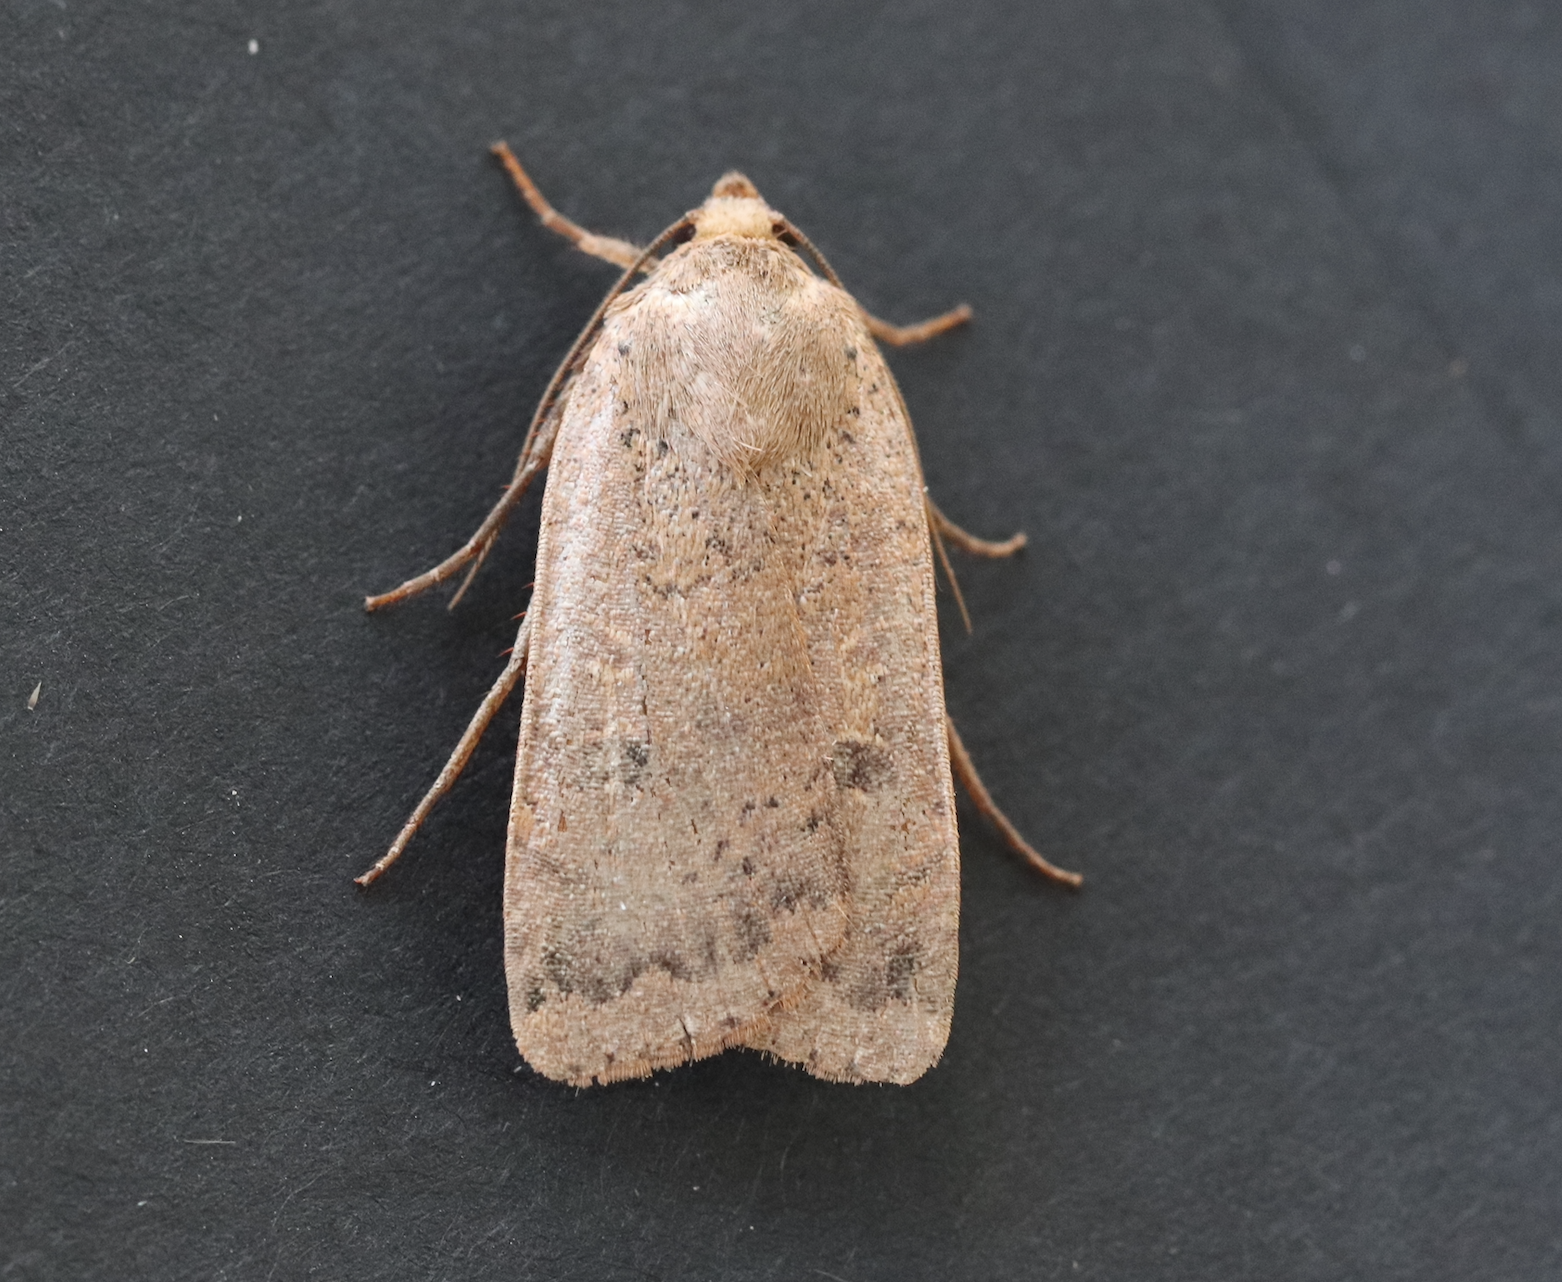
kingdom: Animalia
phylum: Arthropoda
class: Insecta
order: Lepidoptera
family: Noctuidae
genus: Noctua
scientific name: Noctua comes
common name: Lesser yellow underwing
